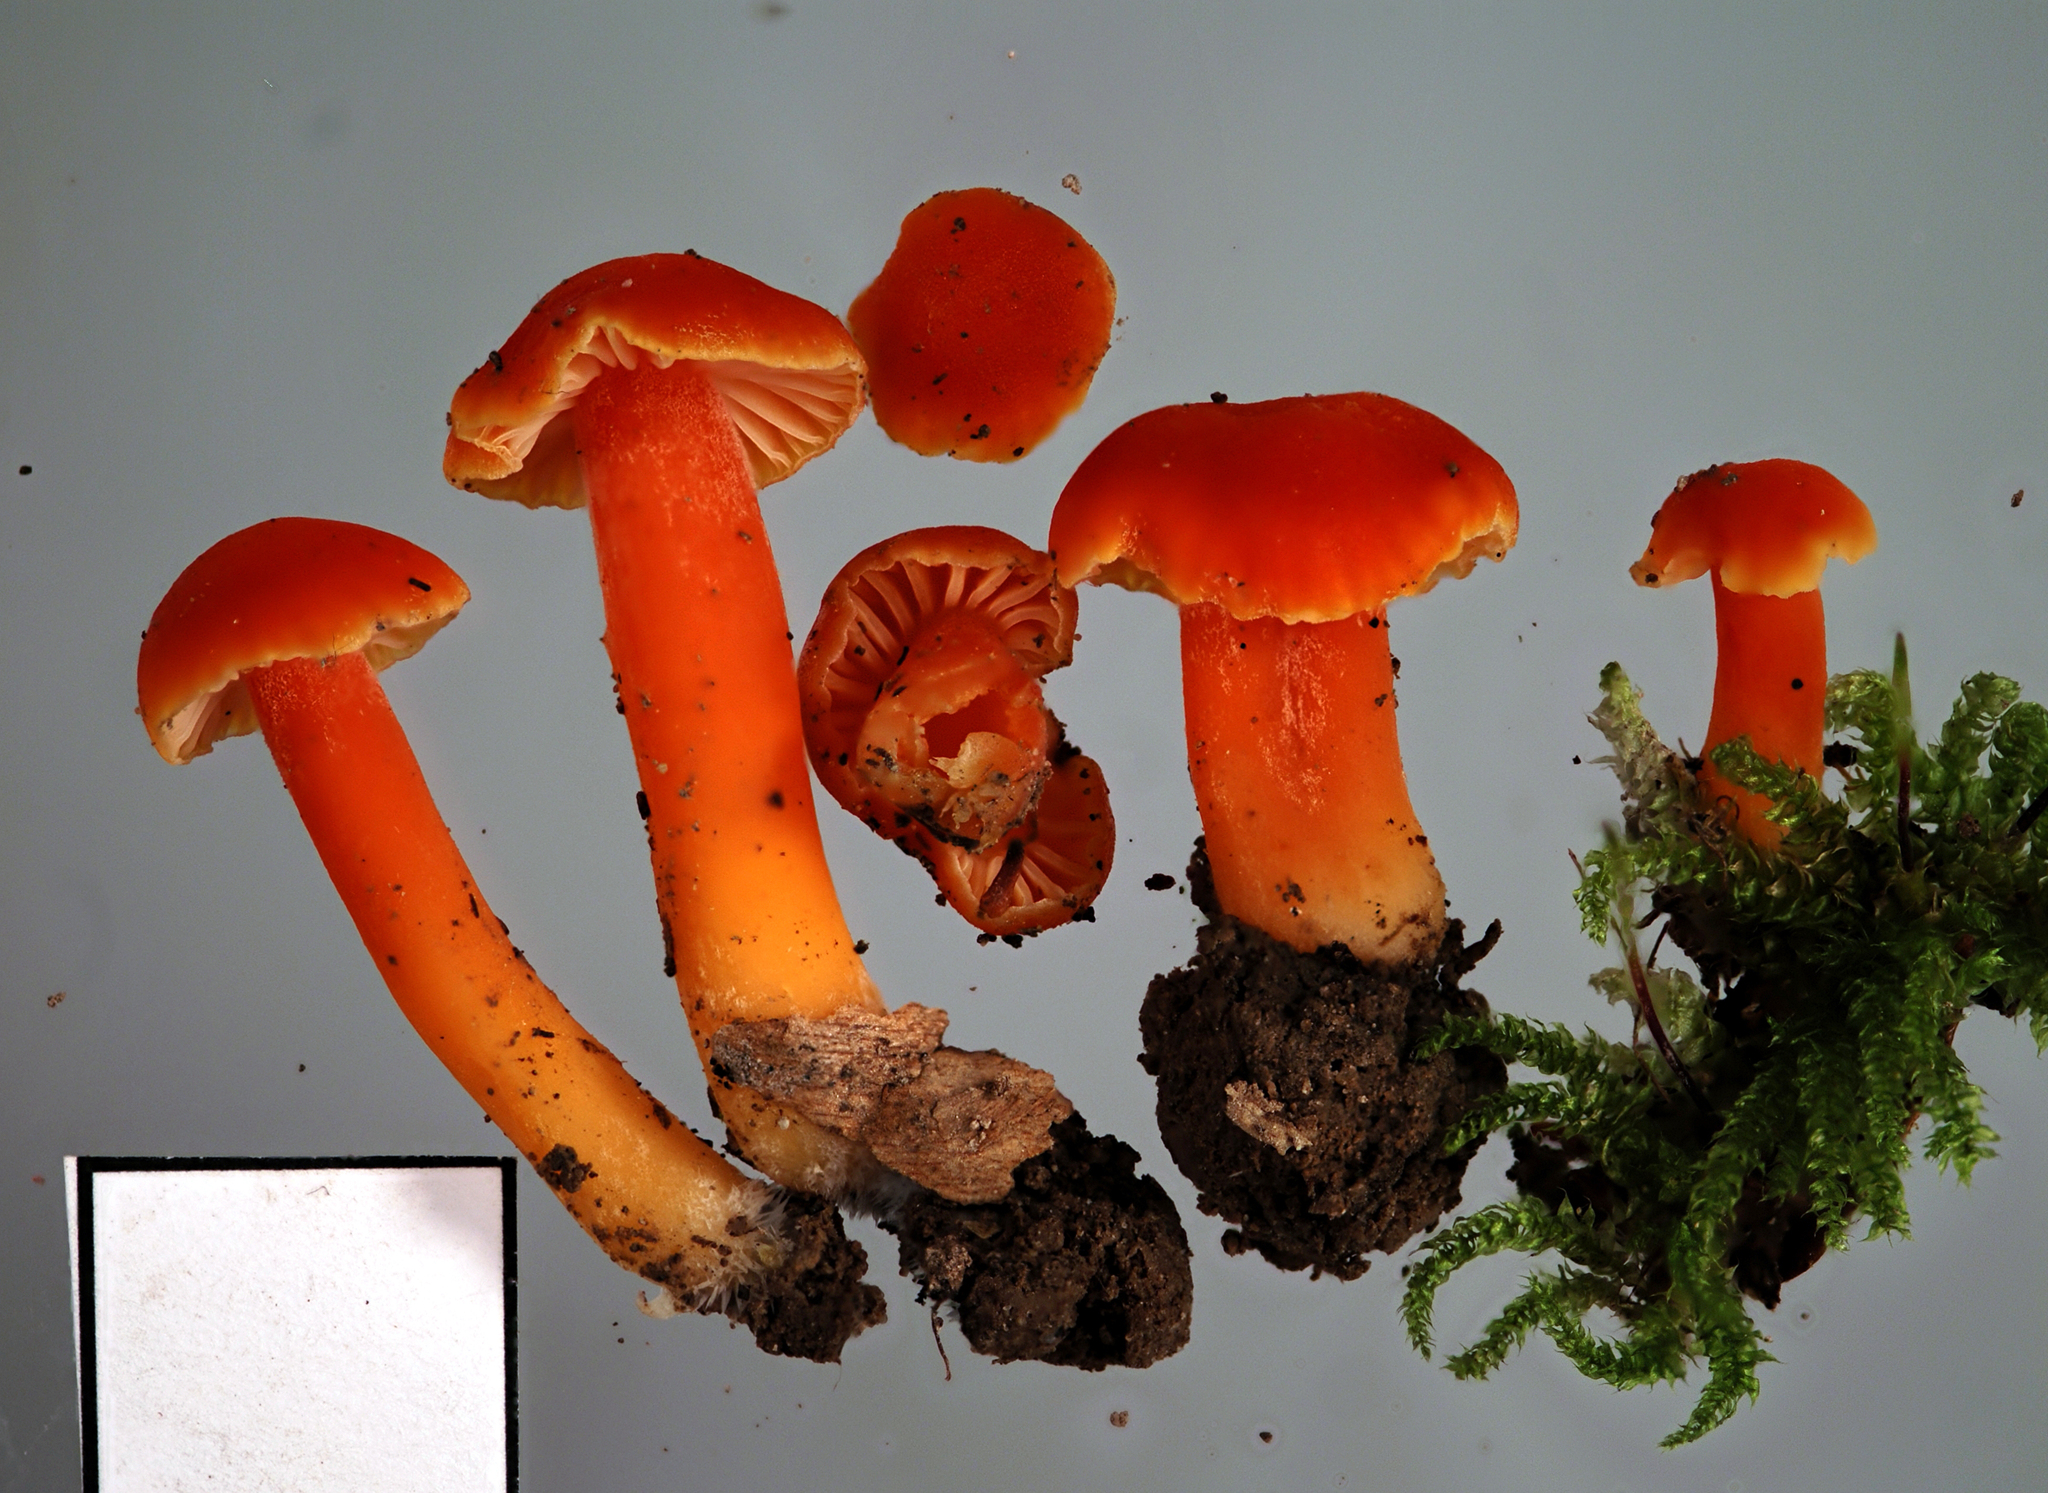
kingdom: Fungi
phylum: Basidiomycota
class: Agaricomycetes
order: Agaricales
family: Hygrophoraceae
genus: Hygrocybe
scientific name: Hygrocybe
